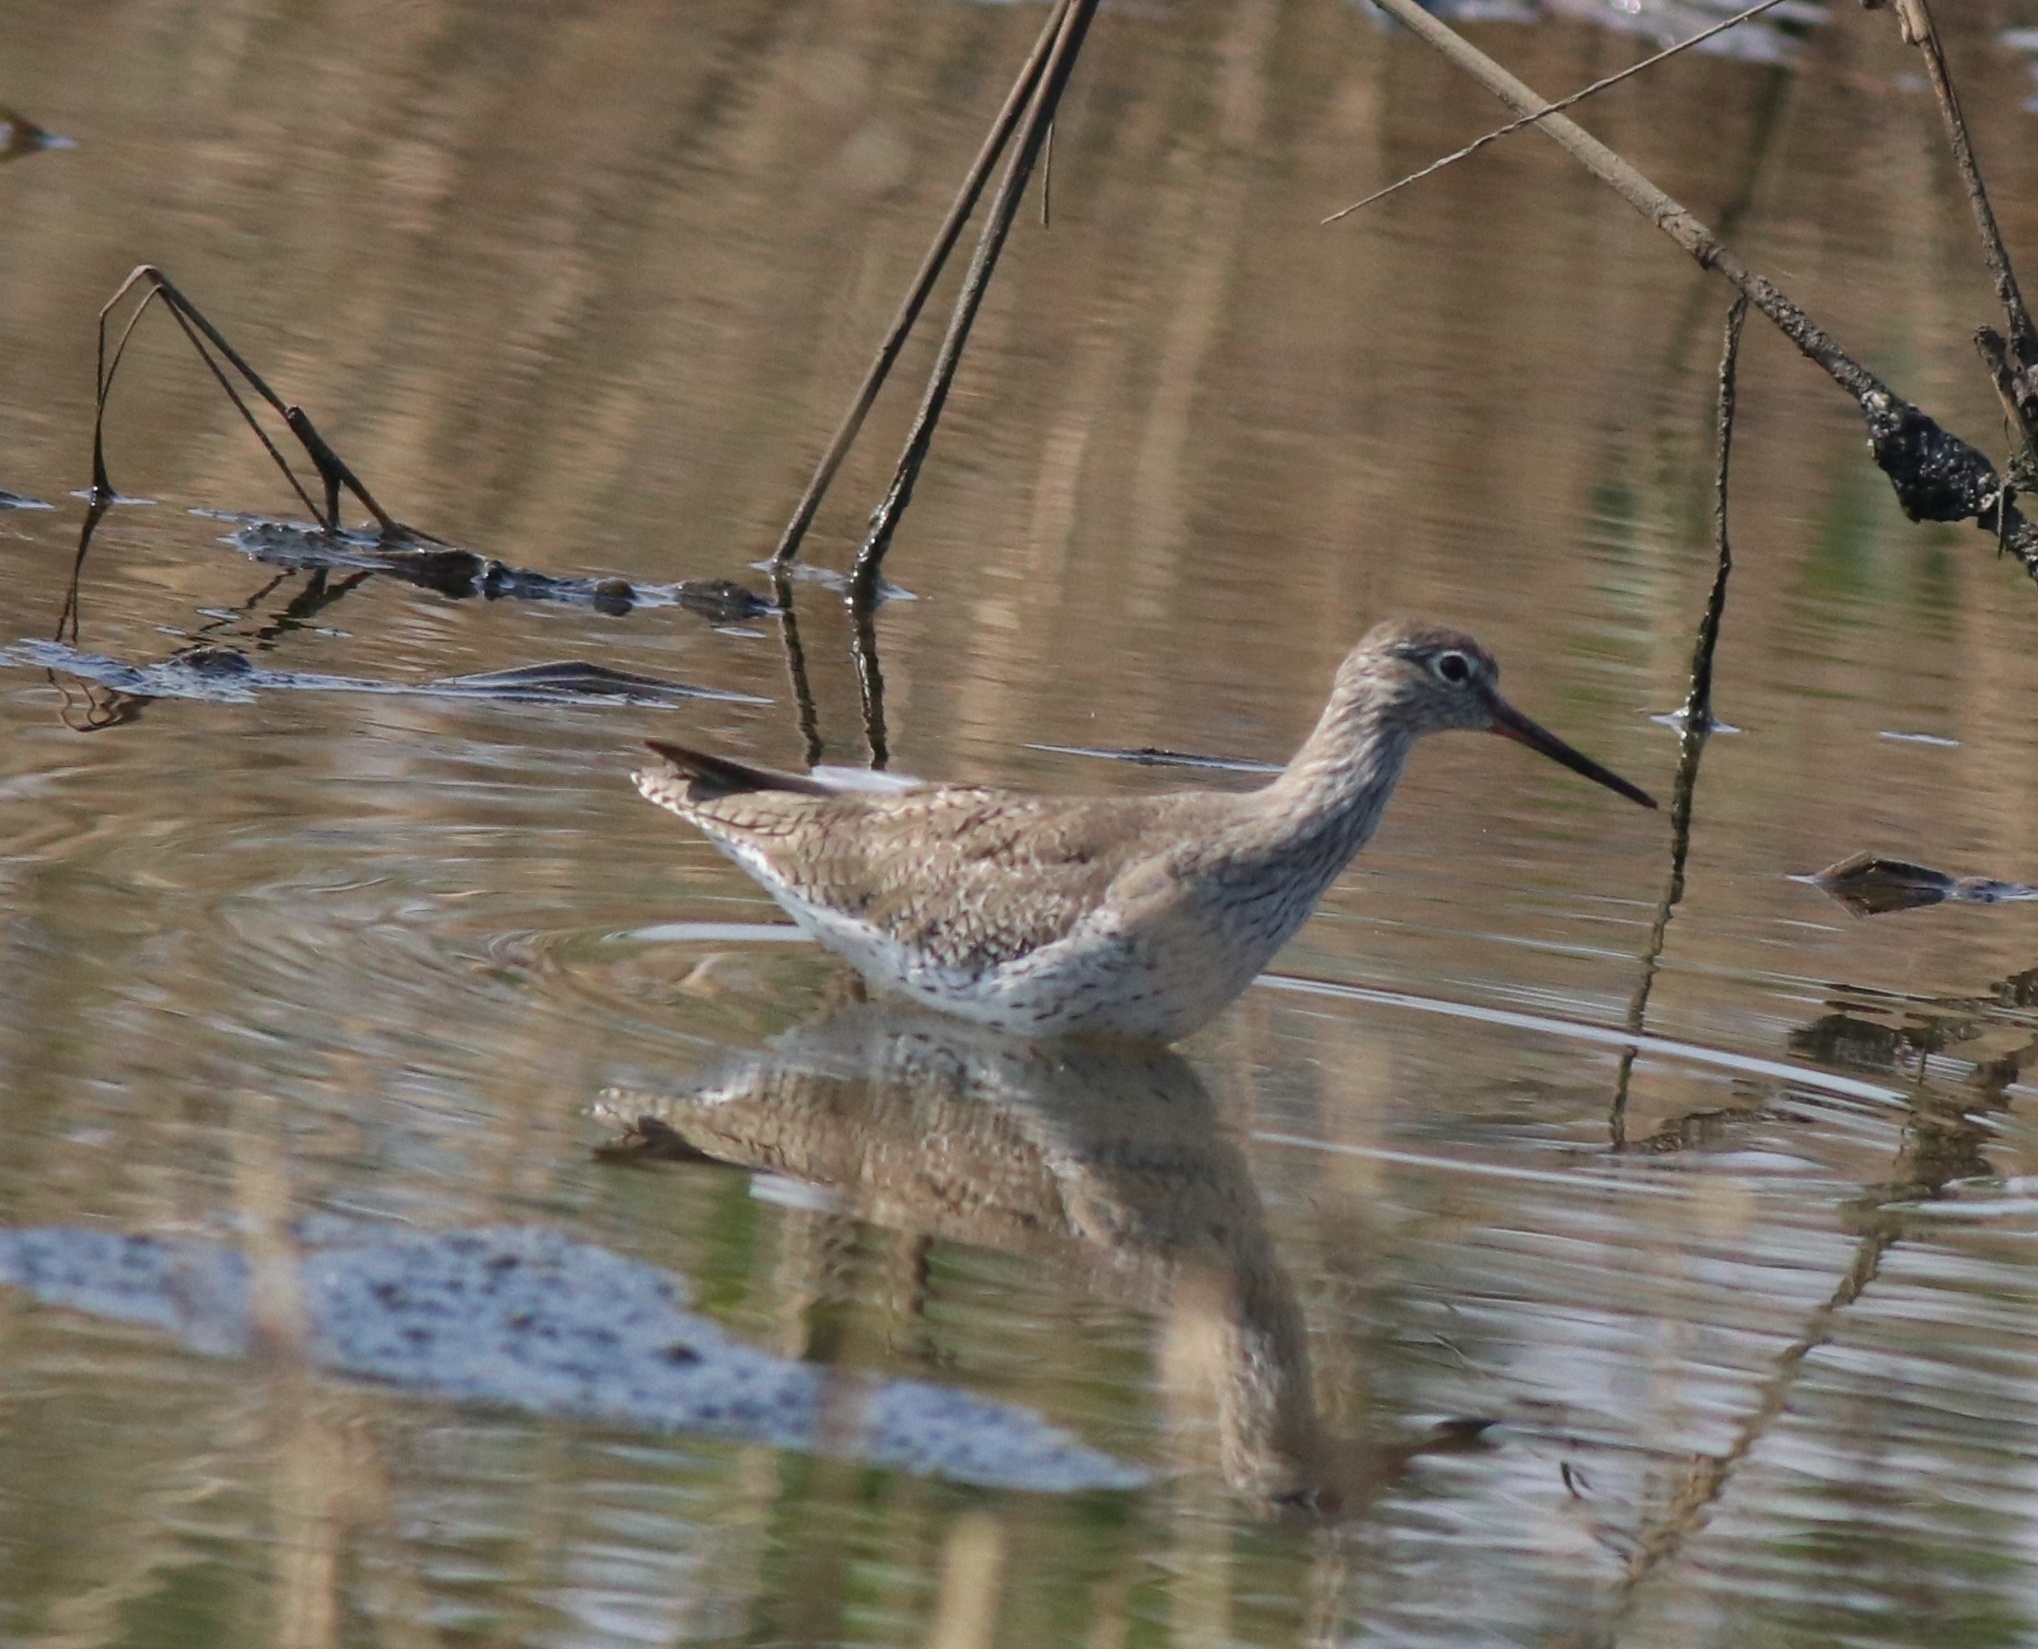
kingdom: Animalia
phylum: Chordata
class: Aves
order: Charadriiformes
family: Scolopacidae
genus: Tringa
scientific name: Tringa totanus
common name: Common redshank
